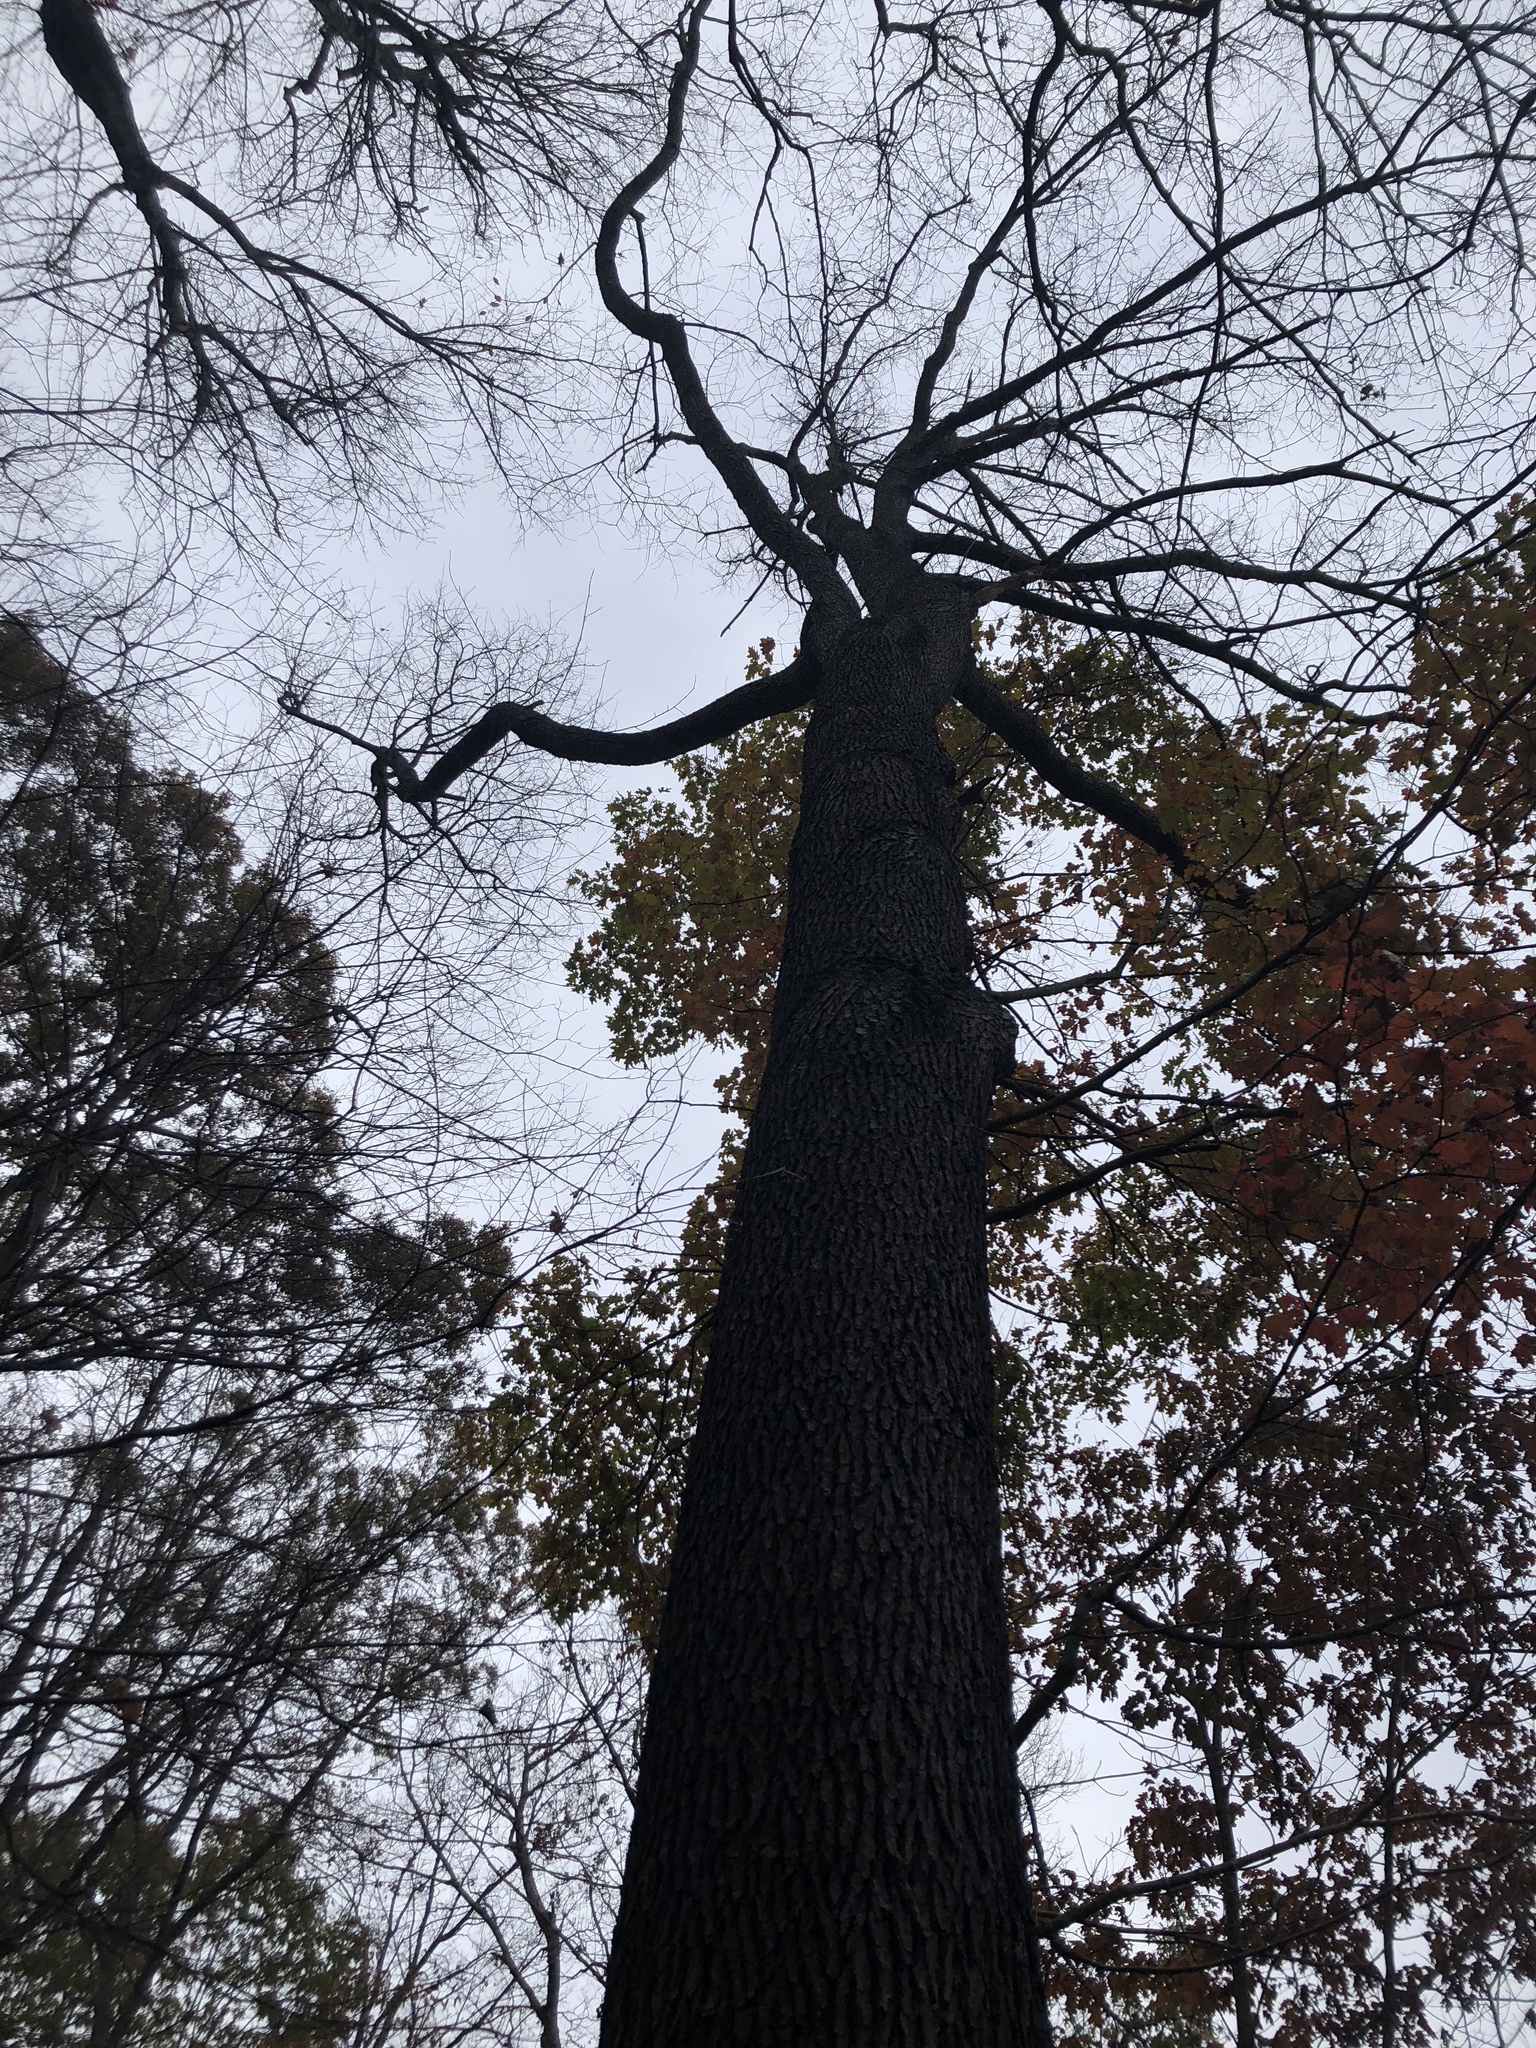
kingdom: Plantae
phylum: Tracheophyta
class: Magnoliopsida
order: Rosales
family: Rosaceae
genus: Prunus
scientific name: Prunus serotina
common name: Black cherry
